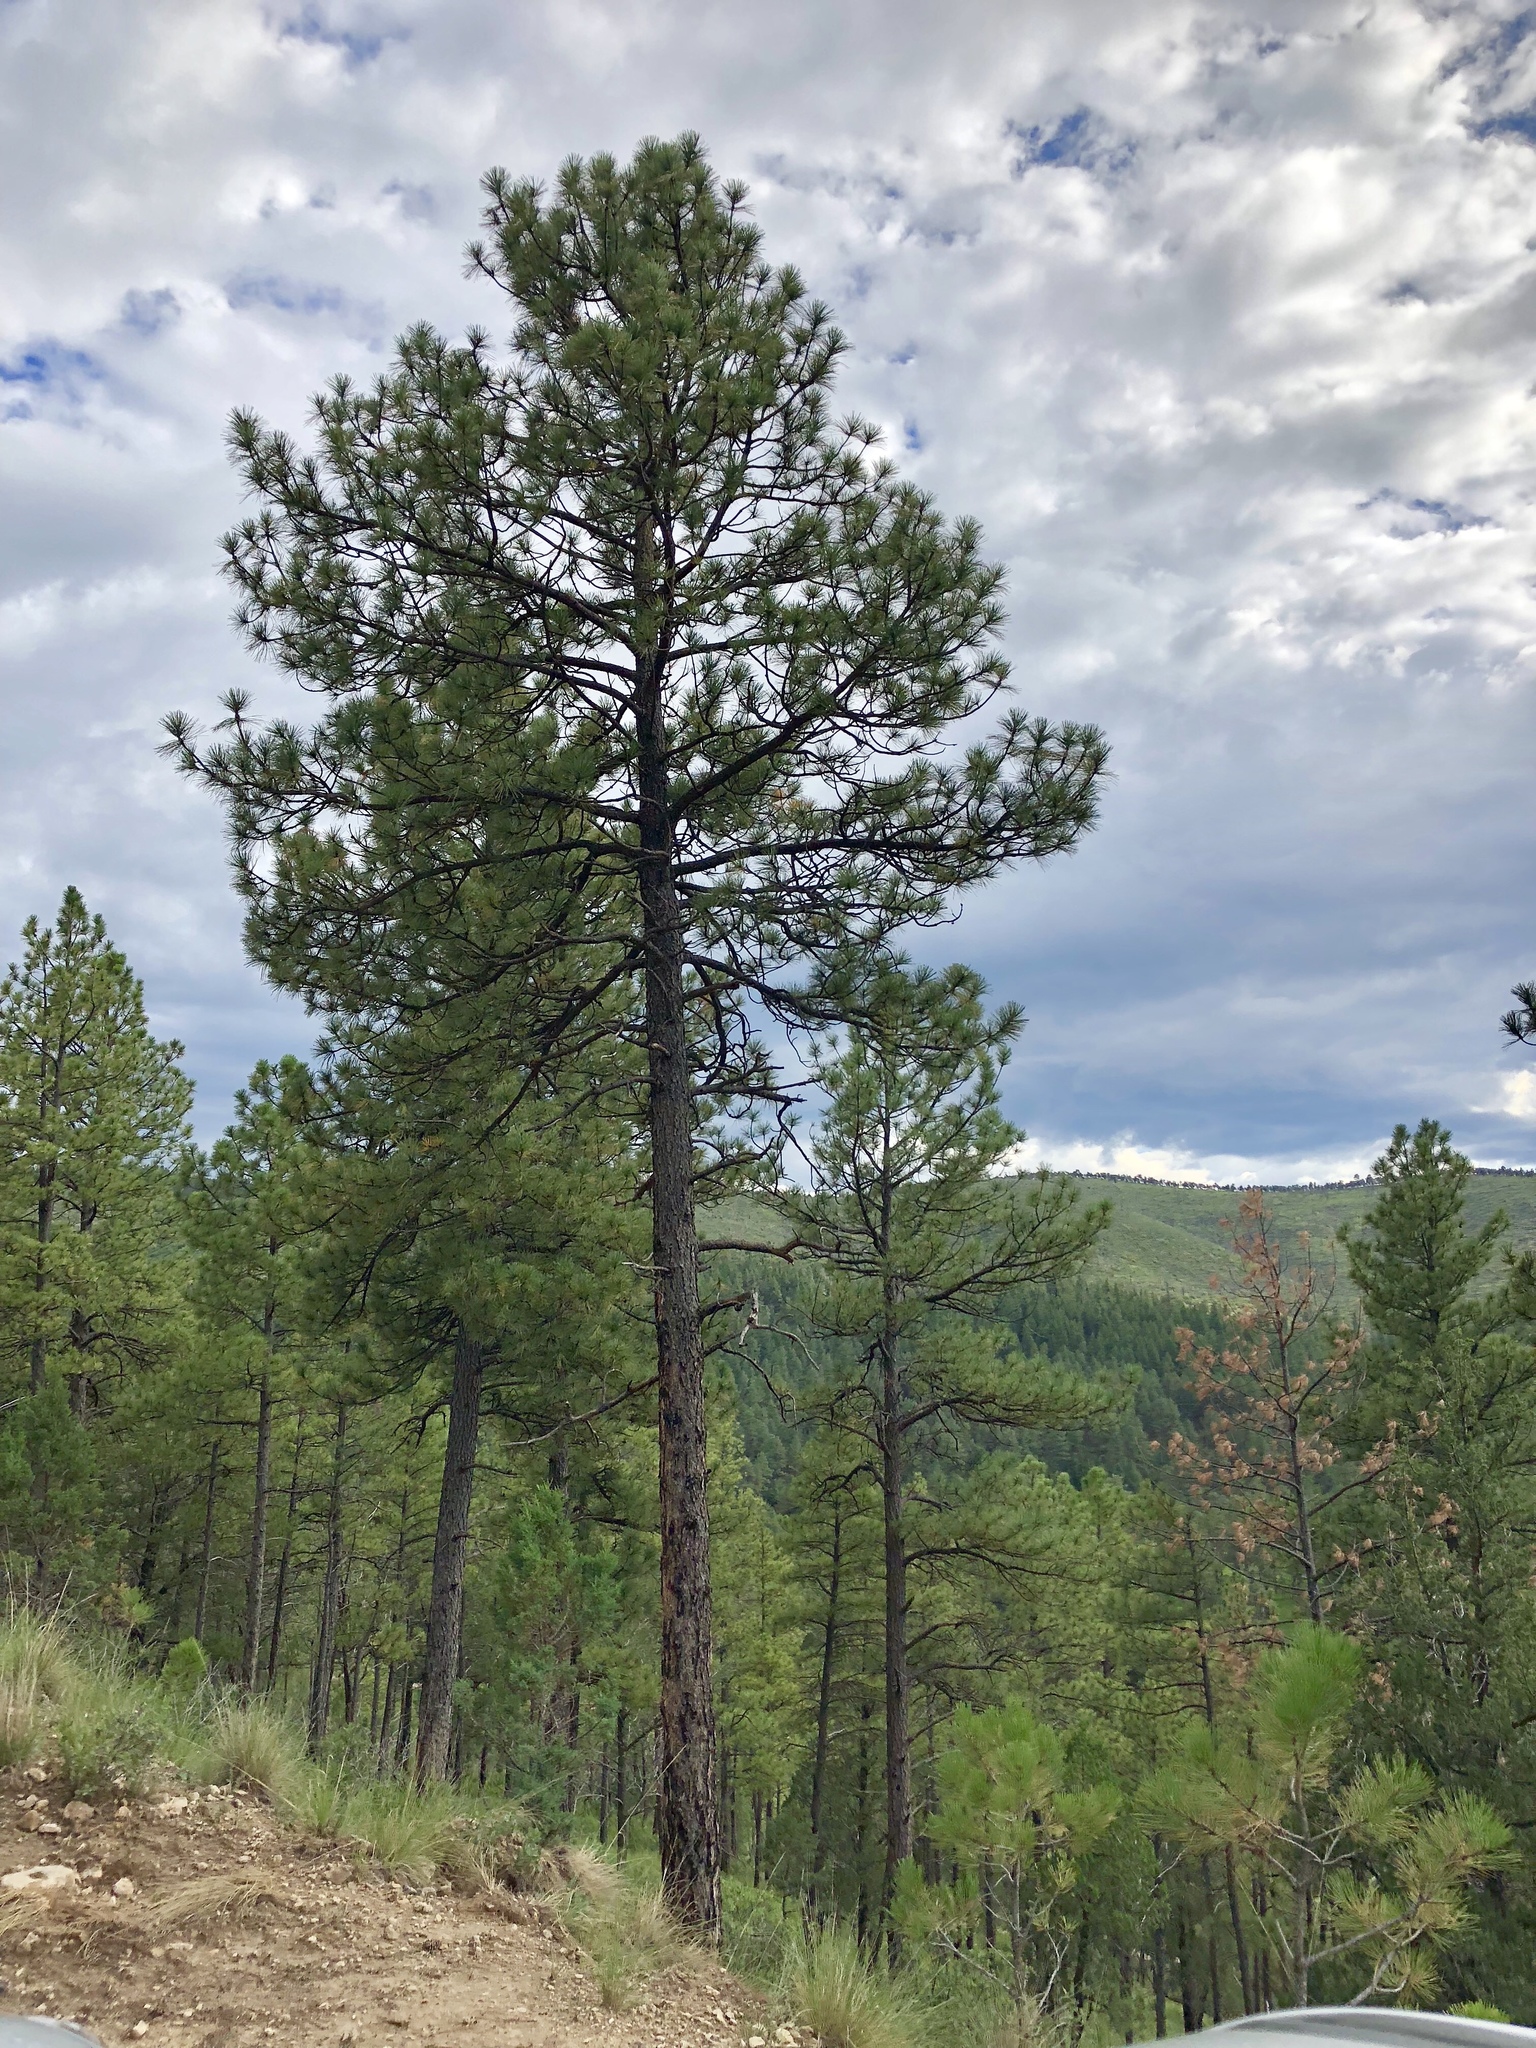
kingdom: Plantae
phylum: Tracheophyta
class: Pinopsida
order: Pinales
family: Pinaceae
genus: Pinus
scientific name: Pinus ponderosa
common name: Western yellow-pine
